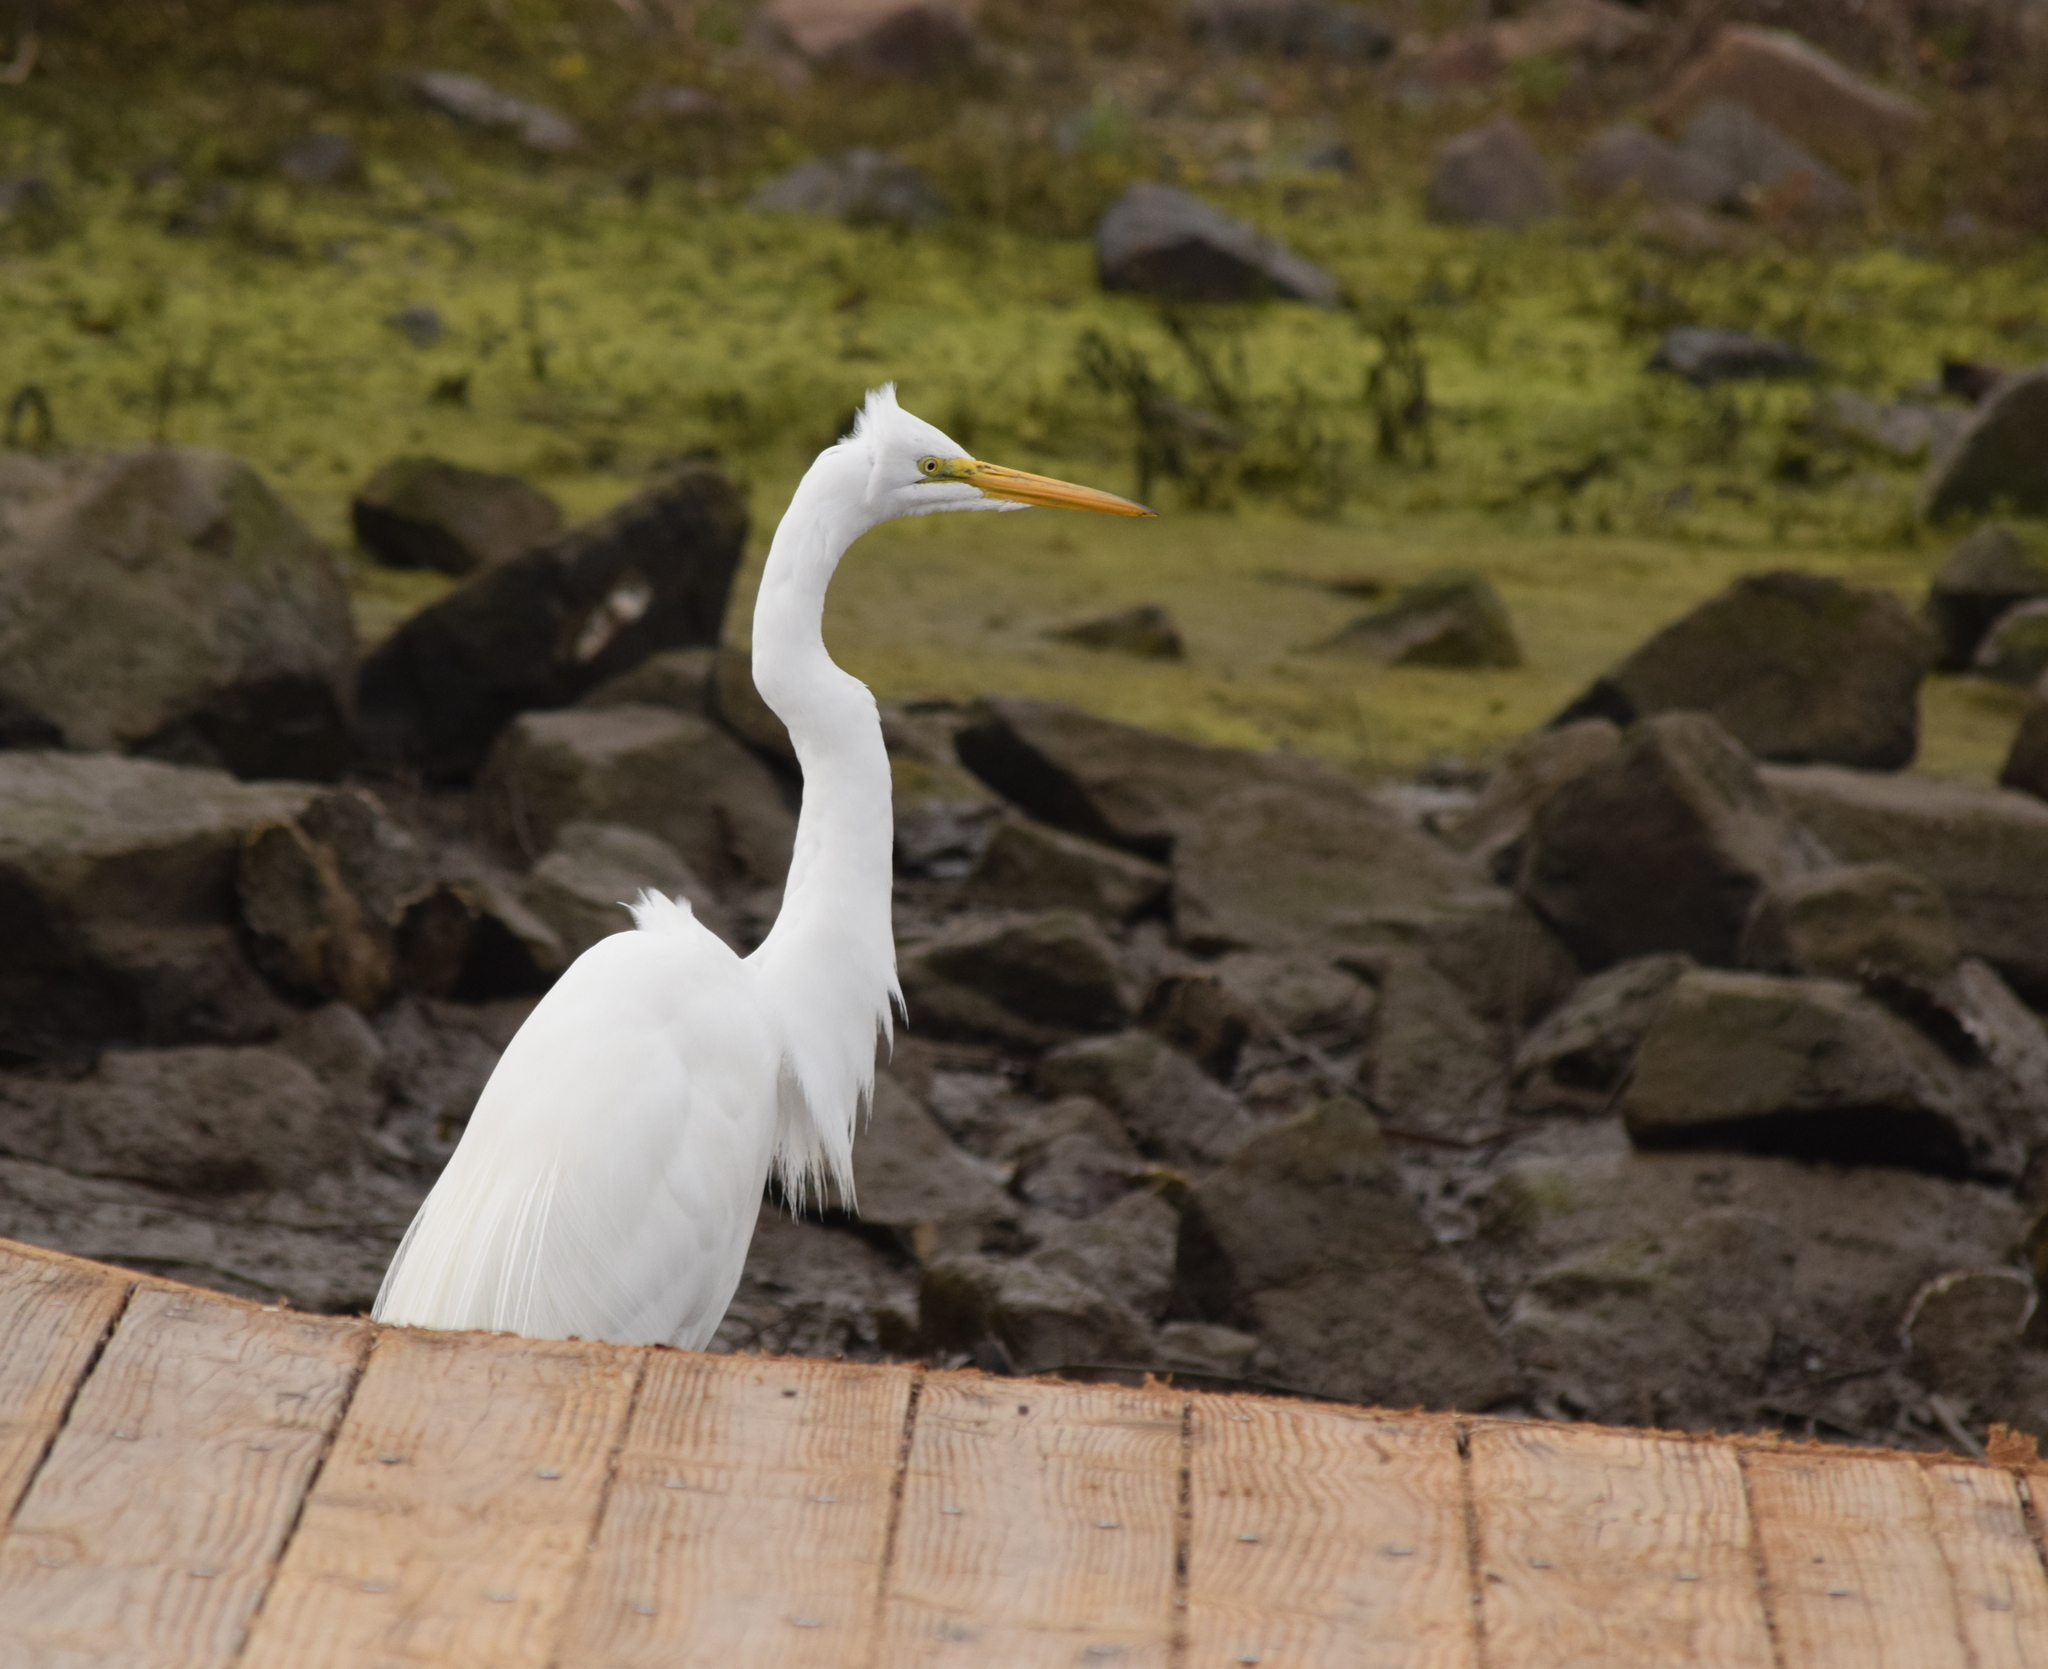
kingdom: Animalia
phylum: Chordata
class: Aves
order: Pelecaniformes
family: Ardeidae
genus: Ardea
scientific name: Ardea alba
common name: Great egret
